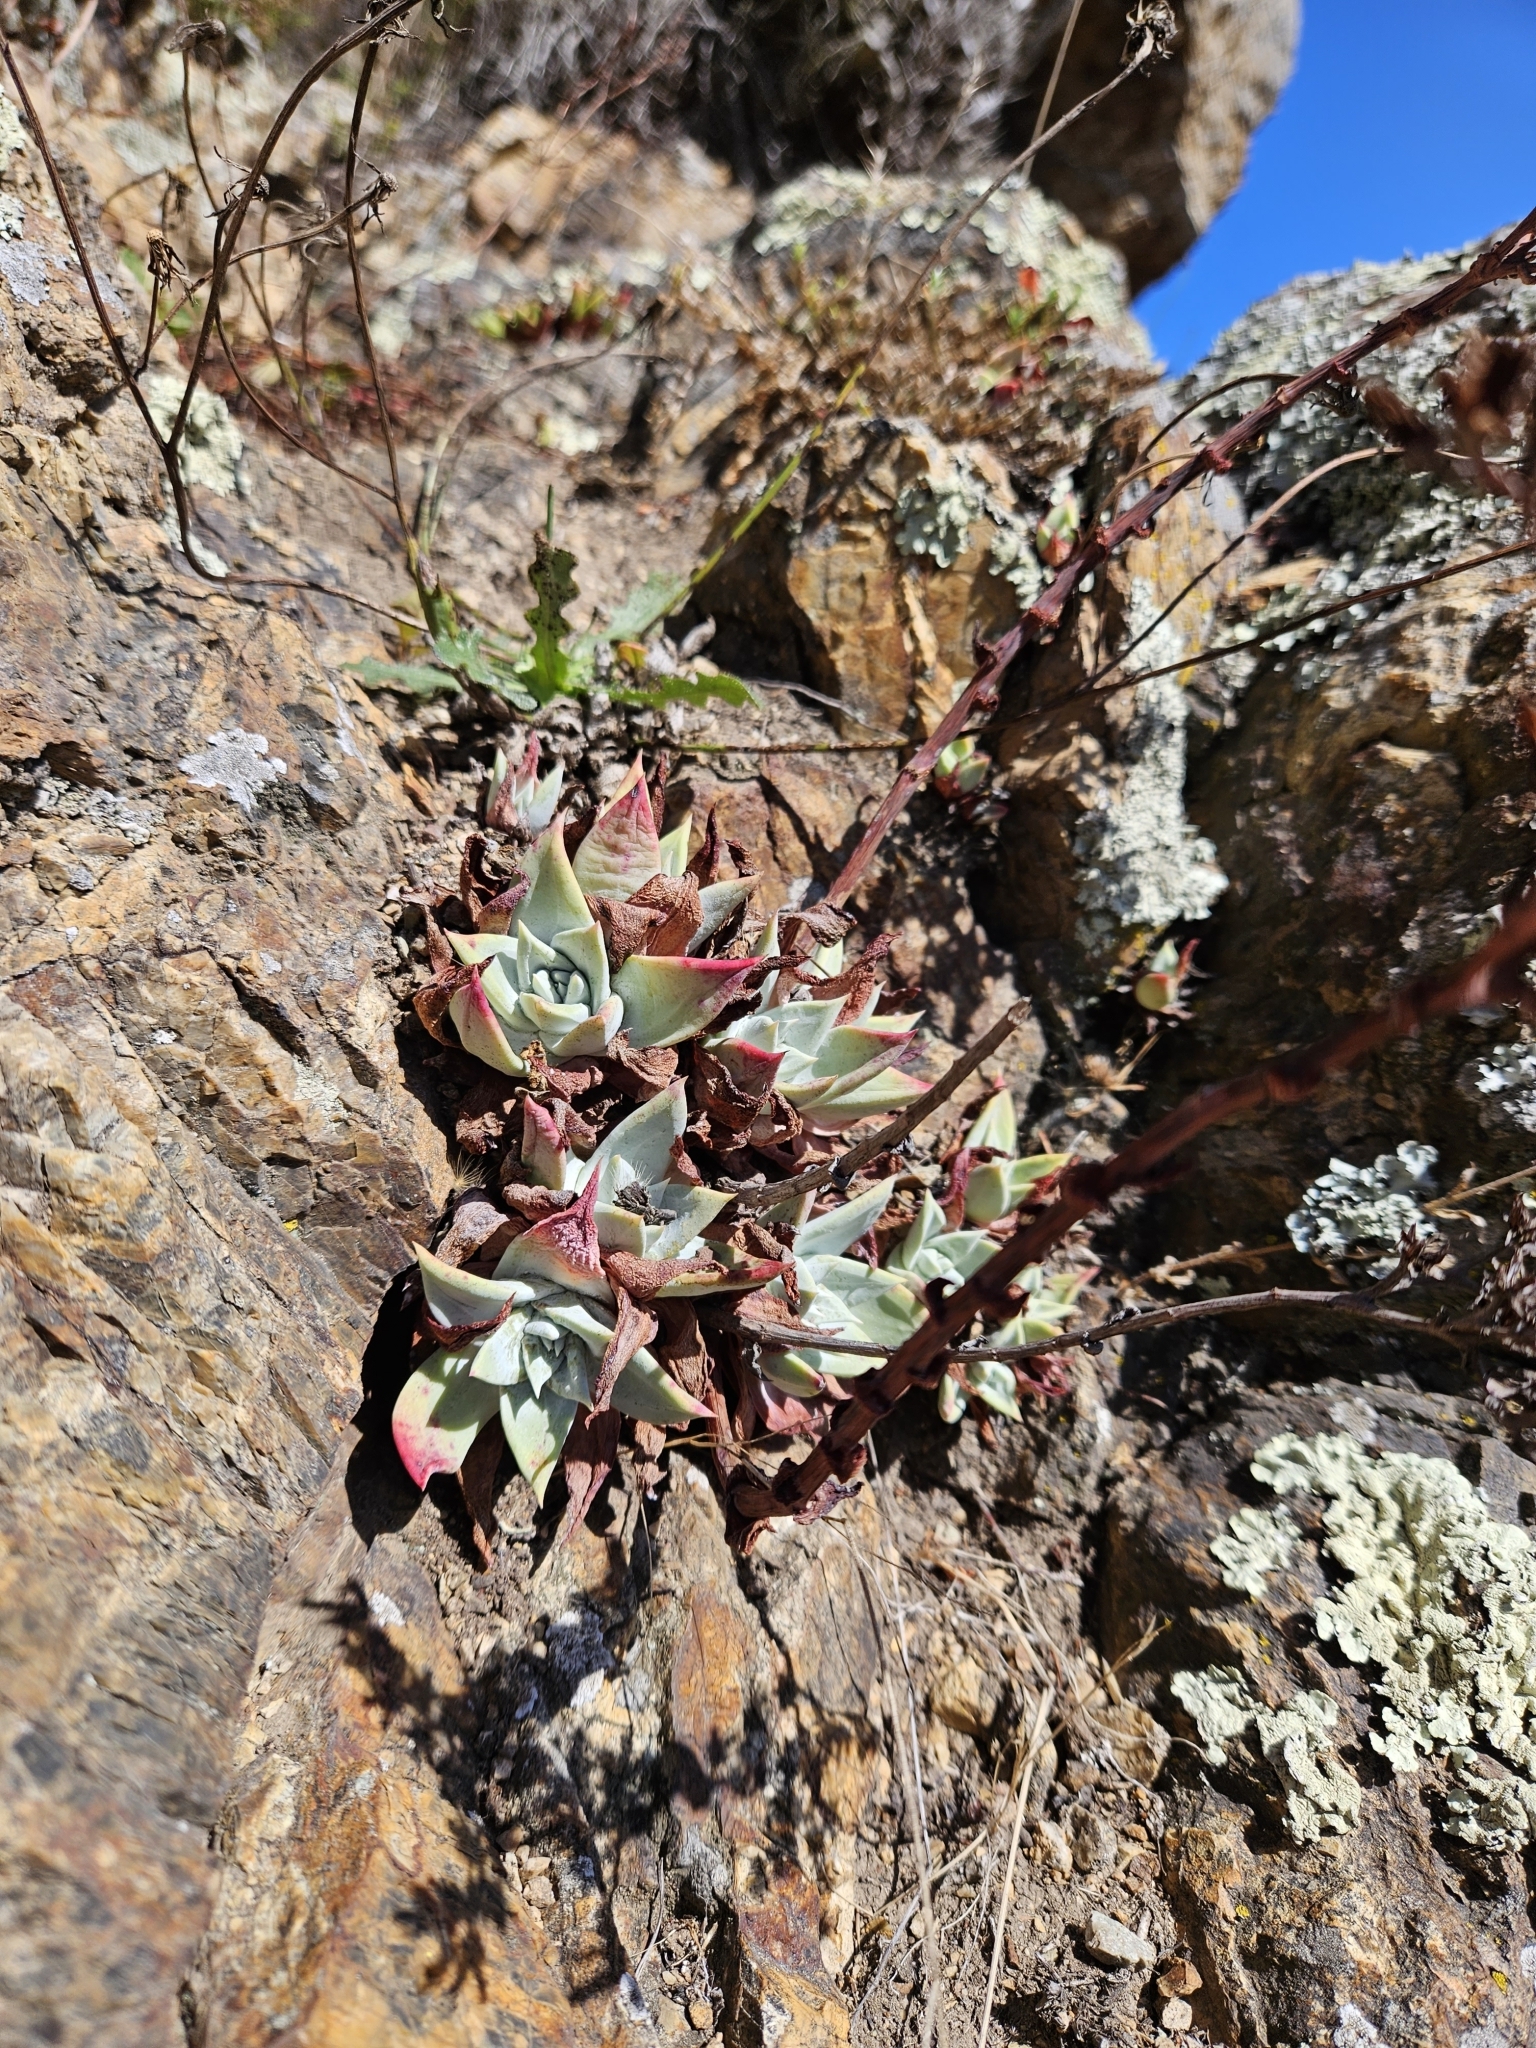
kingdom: Plantae
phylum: Tracheophyta
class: Magnoliopsida
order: Saxifragales
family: Crassulaceae
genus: Dudleya
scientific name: Dudleya farinosa
